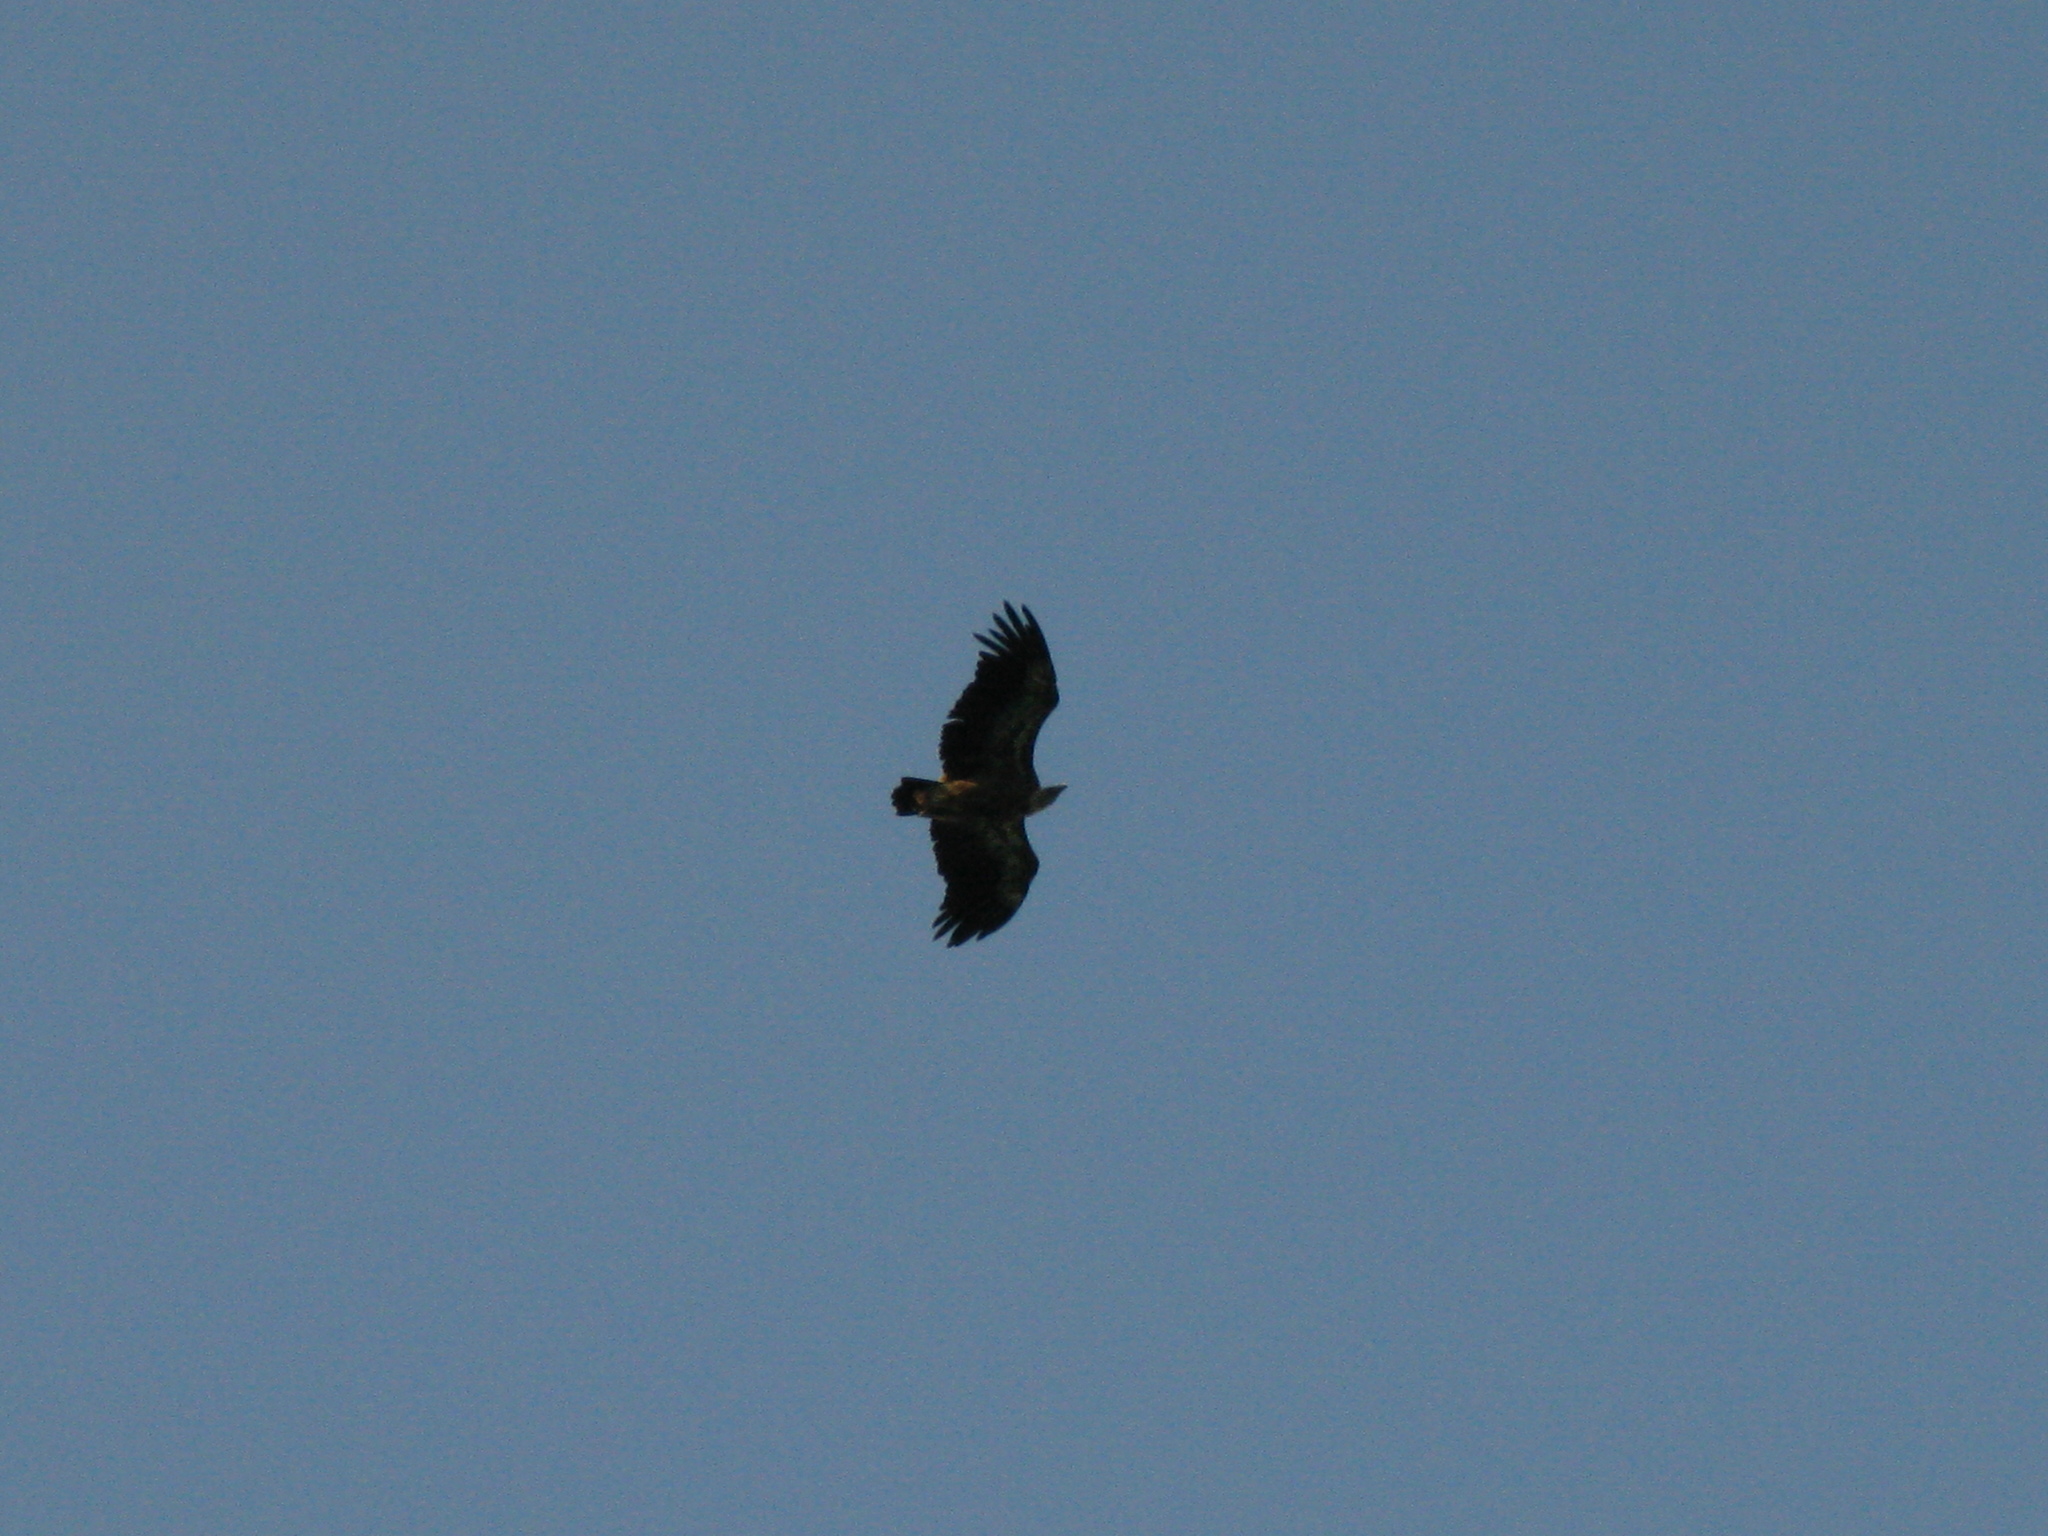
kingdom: Animalia
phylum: Chordata
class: Aves
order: Accipitriformes
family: Accipitridae
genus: Gyps
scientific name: Gyps fulvus
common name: Griffon vulture
